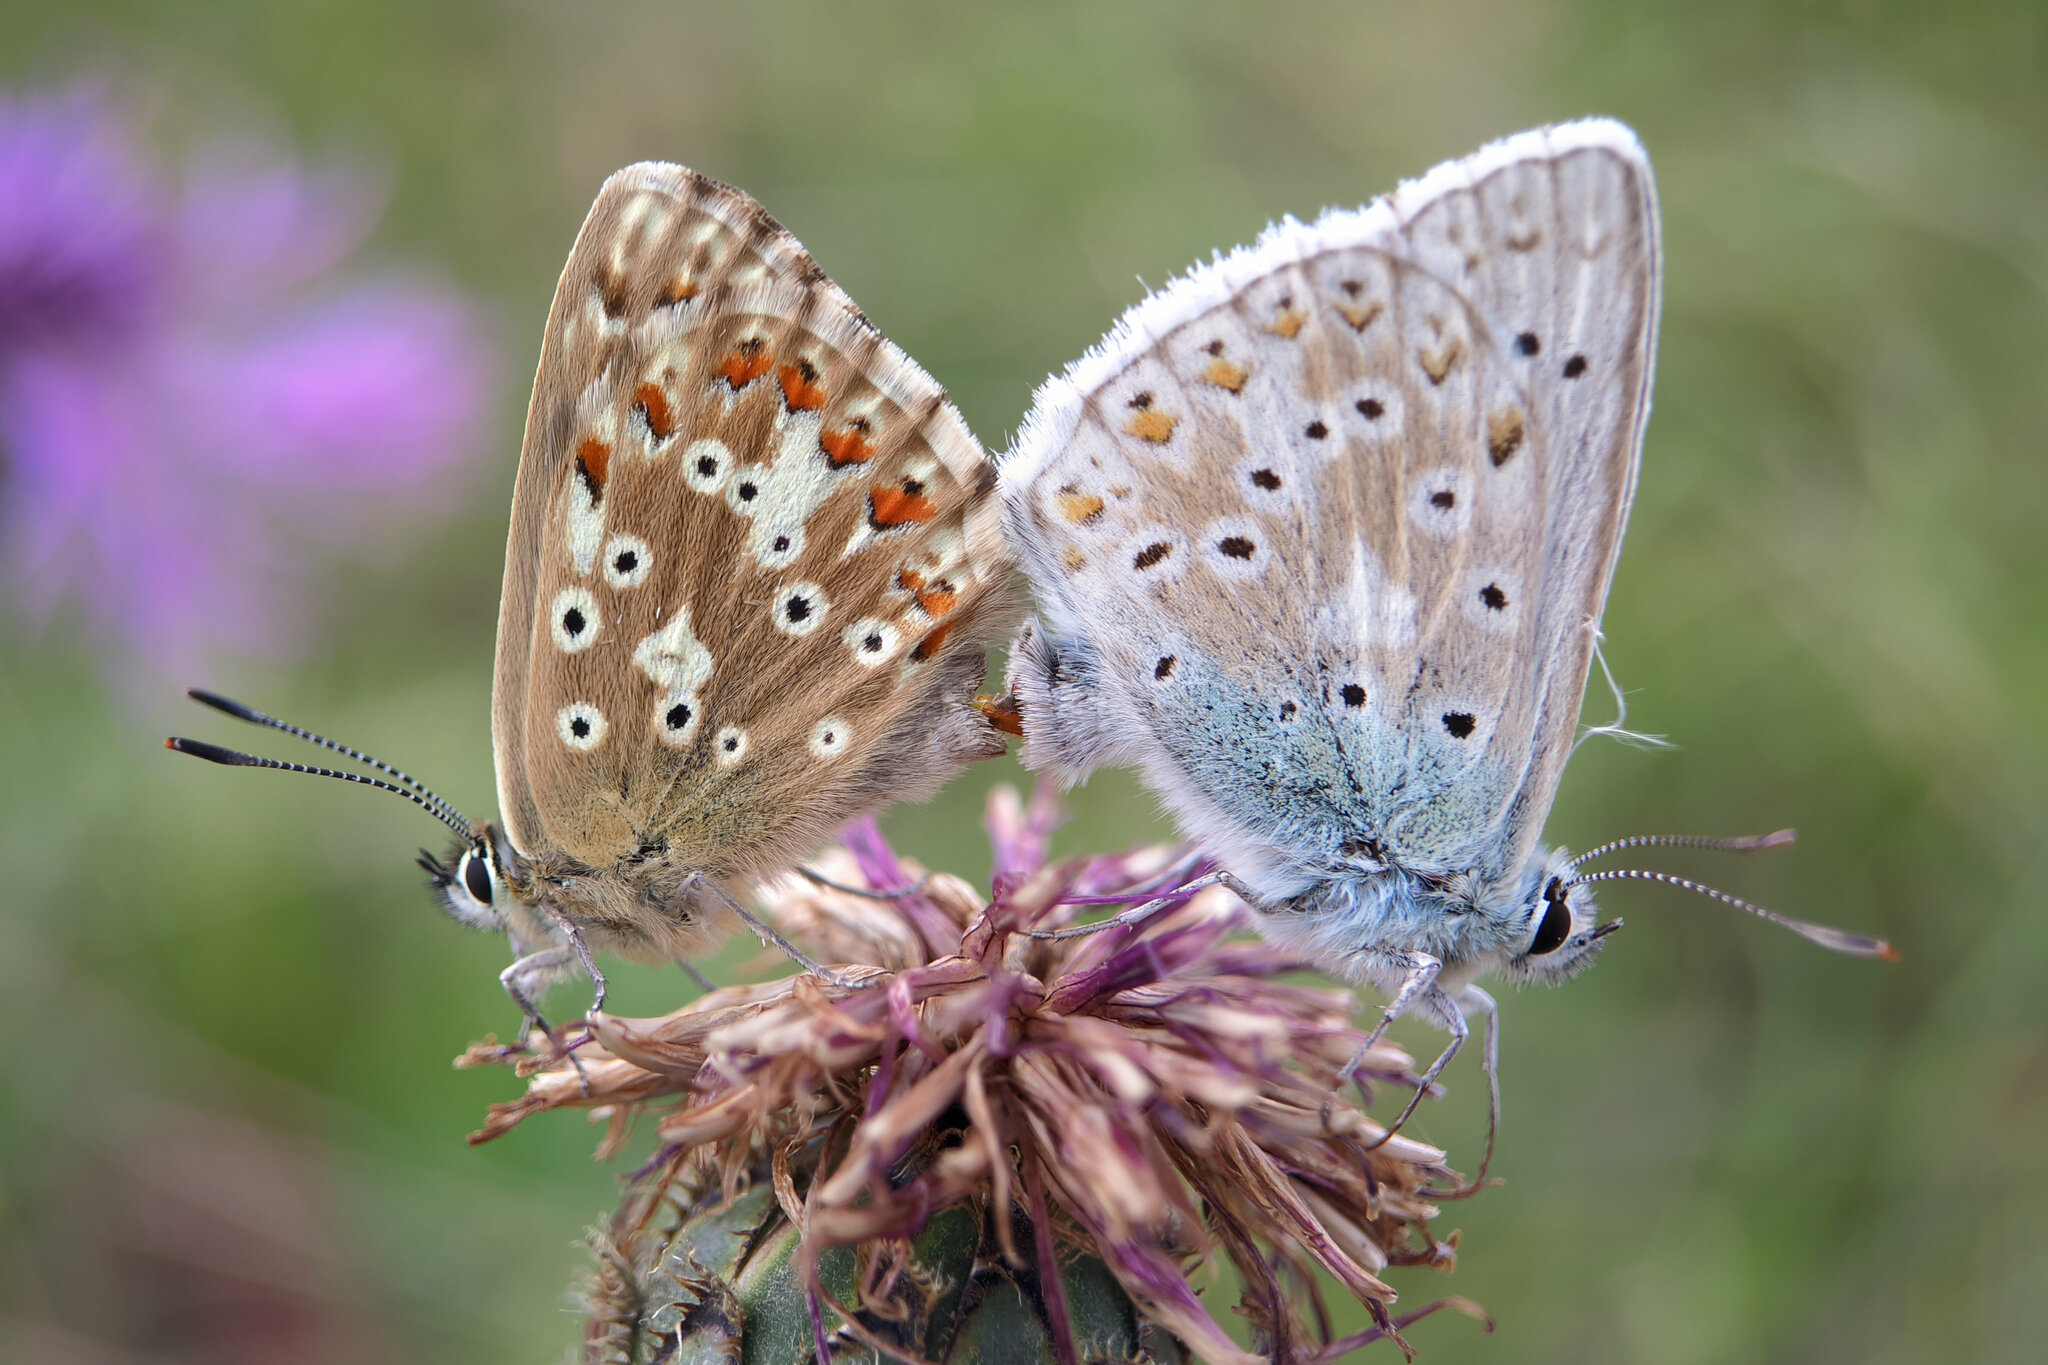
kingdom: Animalia
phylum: Arthropoda
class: Insecta
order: Lepidoptera
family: Lycaenidae
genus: Lysandra
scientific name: Lysandra coridon
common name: Chalkhill blue
